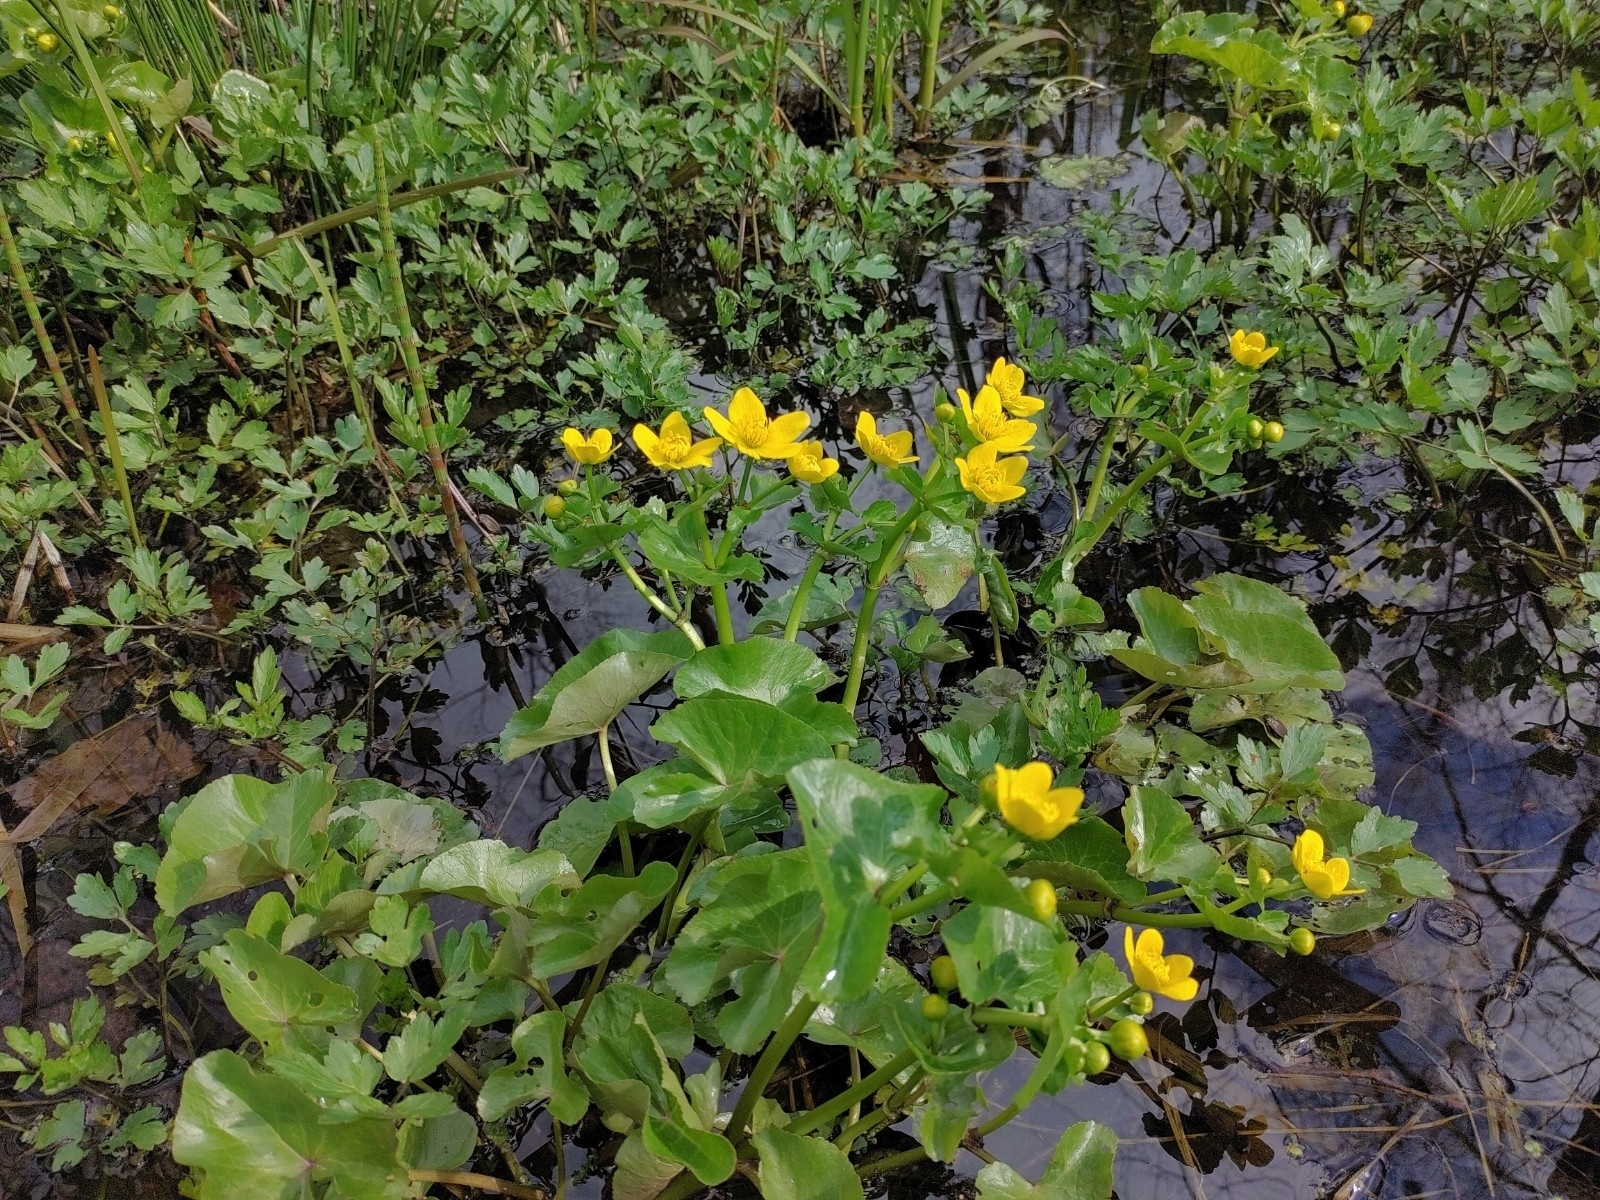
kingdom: Plantae
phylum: Tracheophyta
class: Magnoliopsida
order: Ranunculales
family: Ranunculaceae
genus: Caltha
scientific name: Caltha palustris
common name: Marsh marigold
